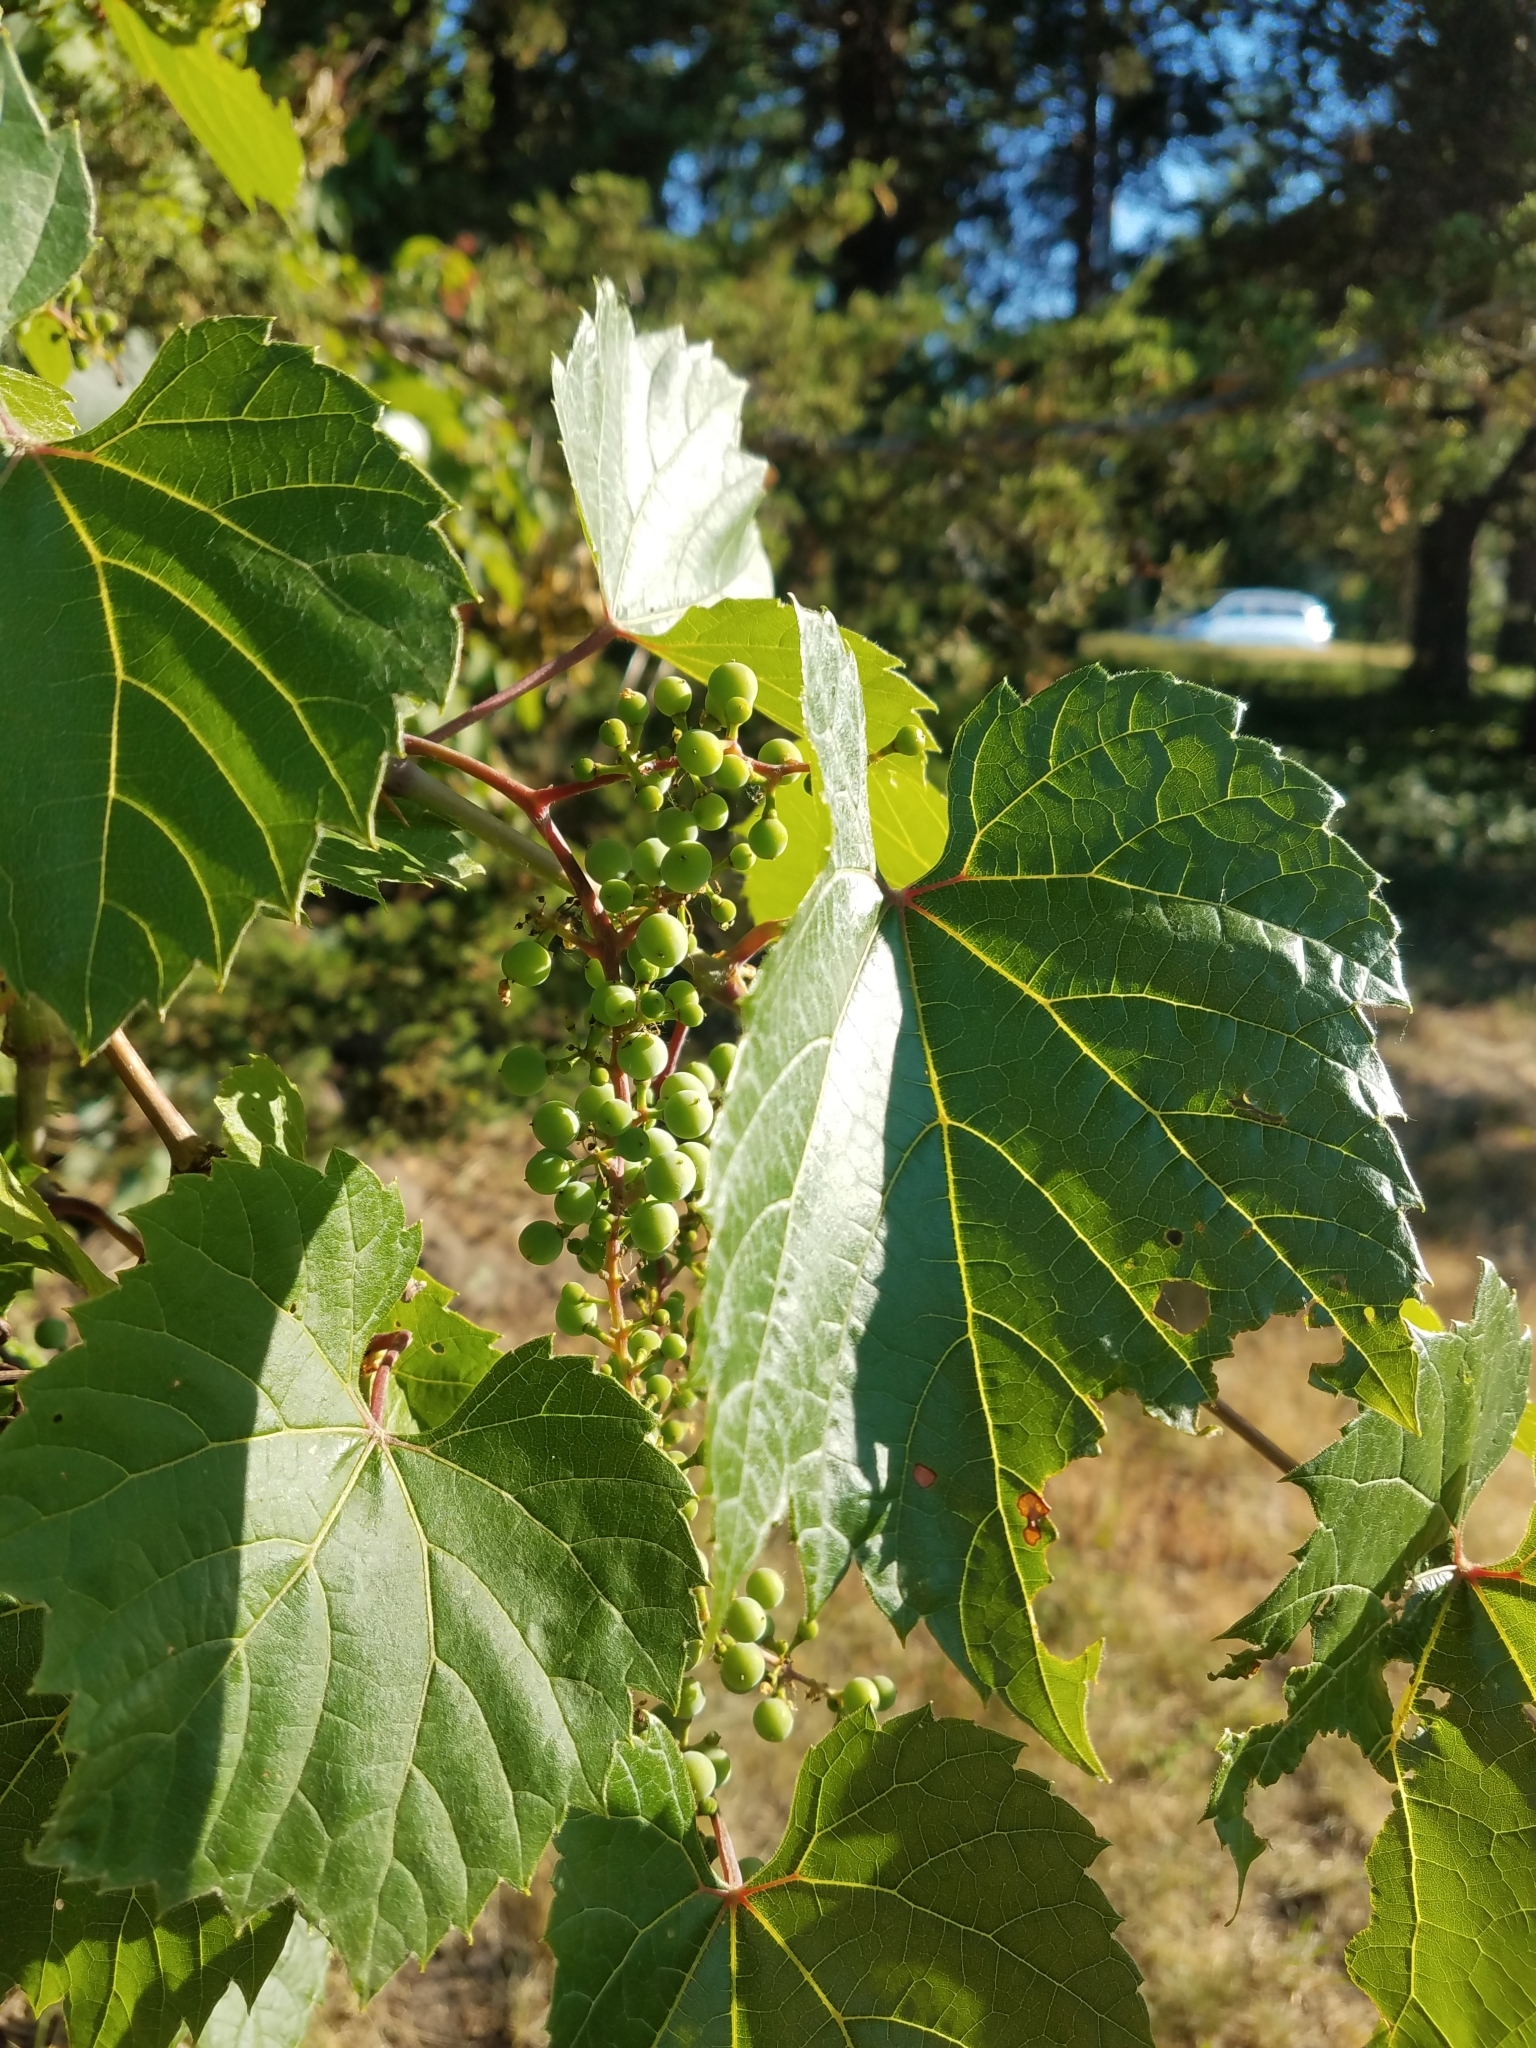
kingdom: Plantae
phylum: Tracheophyta
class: Magnoliopsida
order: Vitales
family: Vitaceae
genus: Vitis
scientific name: Vitis riparia
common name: Frost grape
